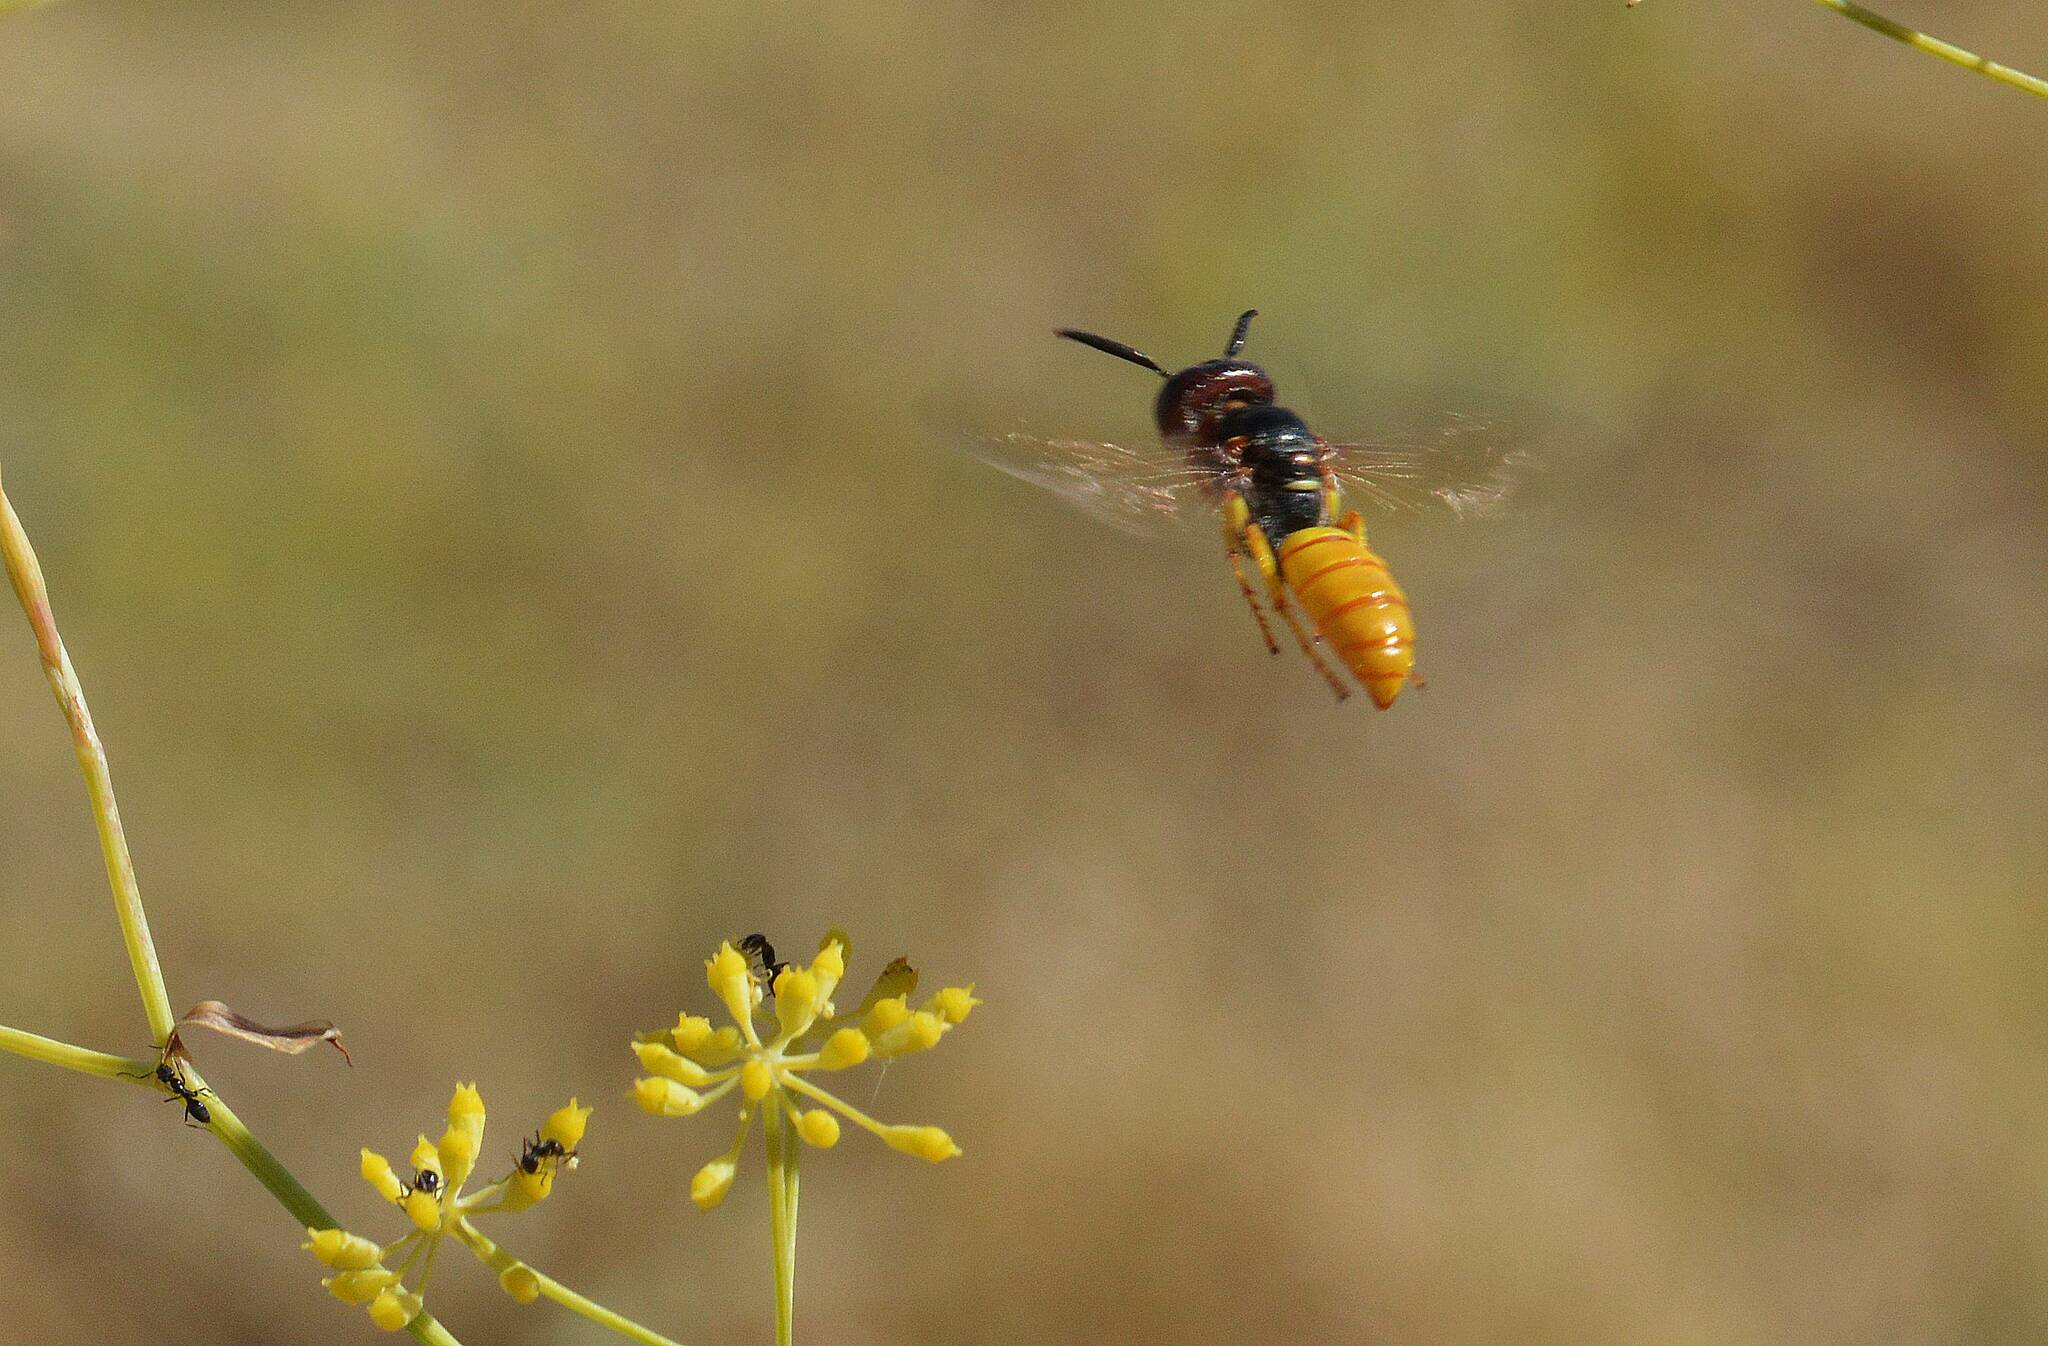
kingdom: Animalia
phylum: Arthropoda
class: Insecta
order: Hymenoptera
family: Crabronidae
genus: Philanthus
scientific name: Philanthus triangulum
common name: Bee wolf
